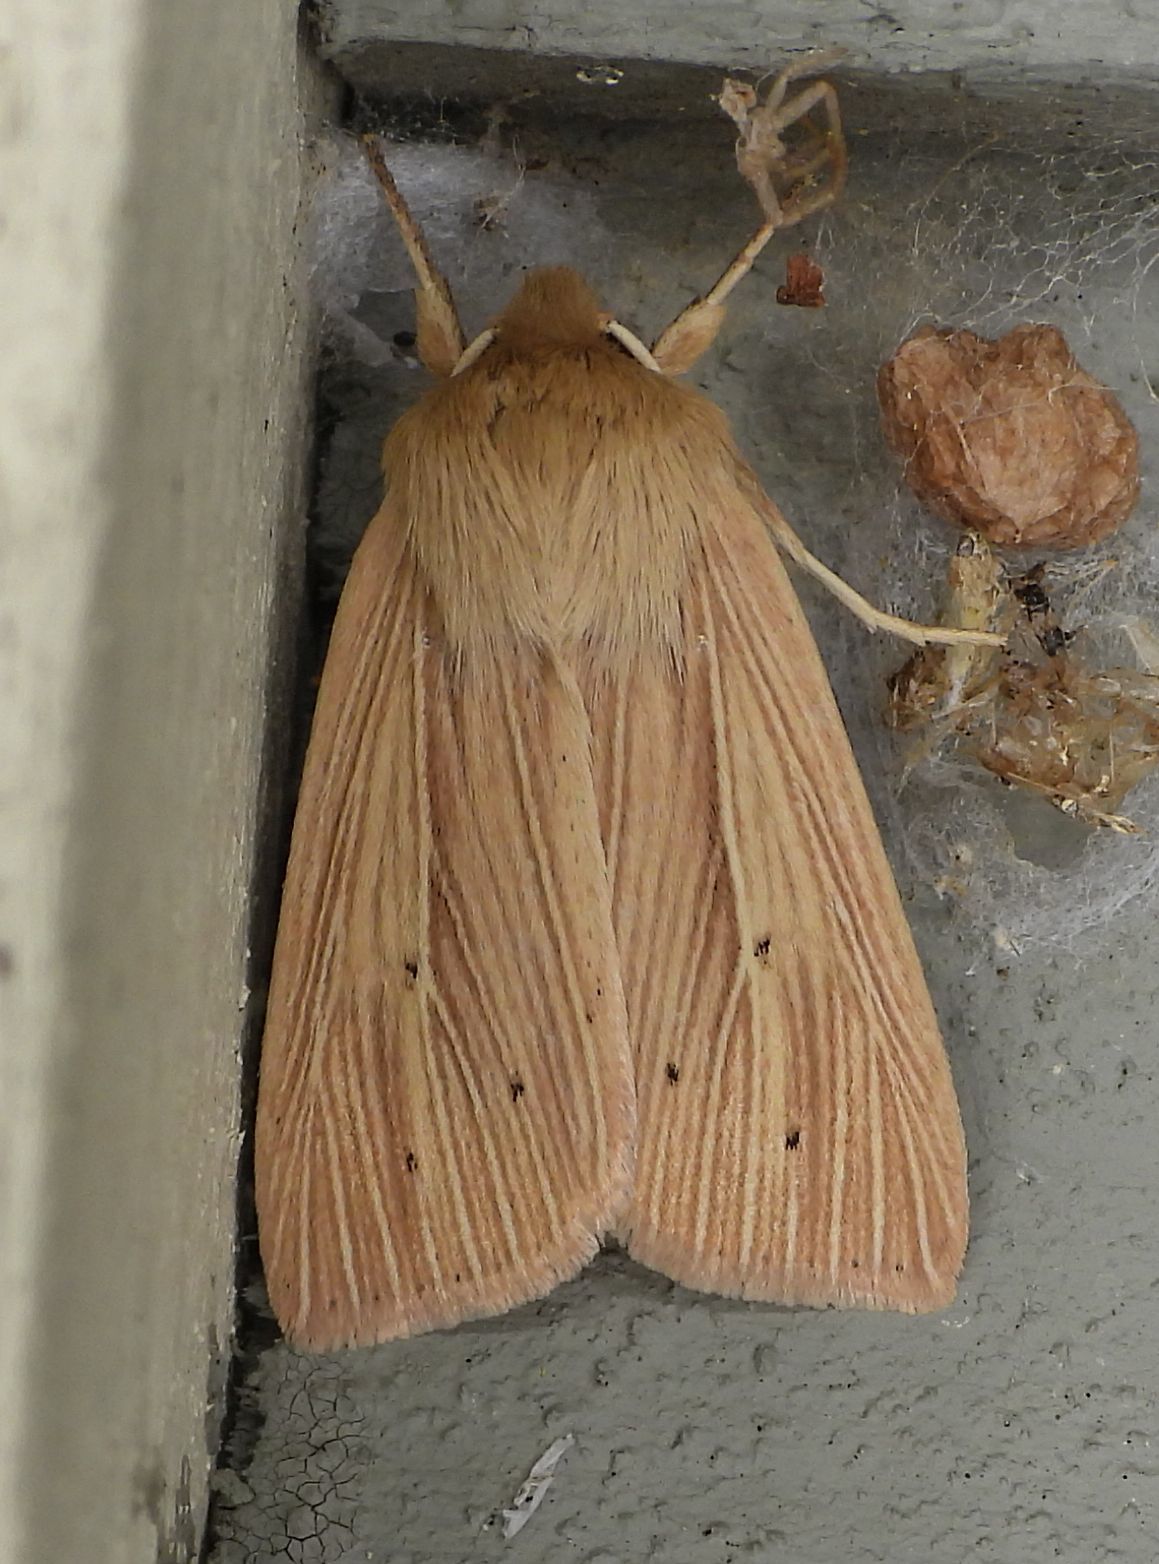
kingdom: Animalia
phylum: Arthropoda
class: Insecta
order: Lepidoptera
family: Noctuidae
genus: Mythimna
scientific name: Mythimna oxygala
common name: Lesser wainscot
